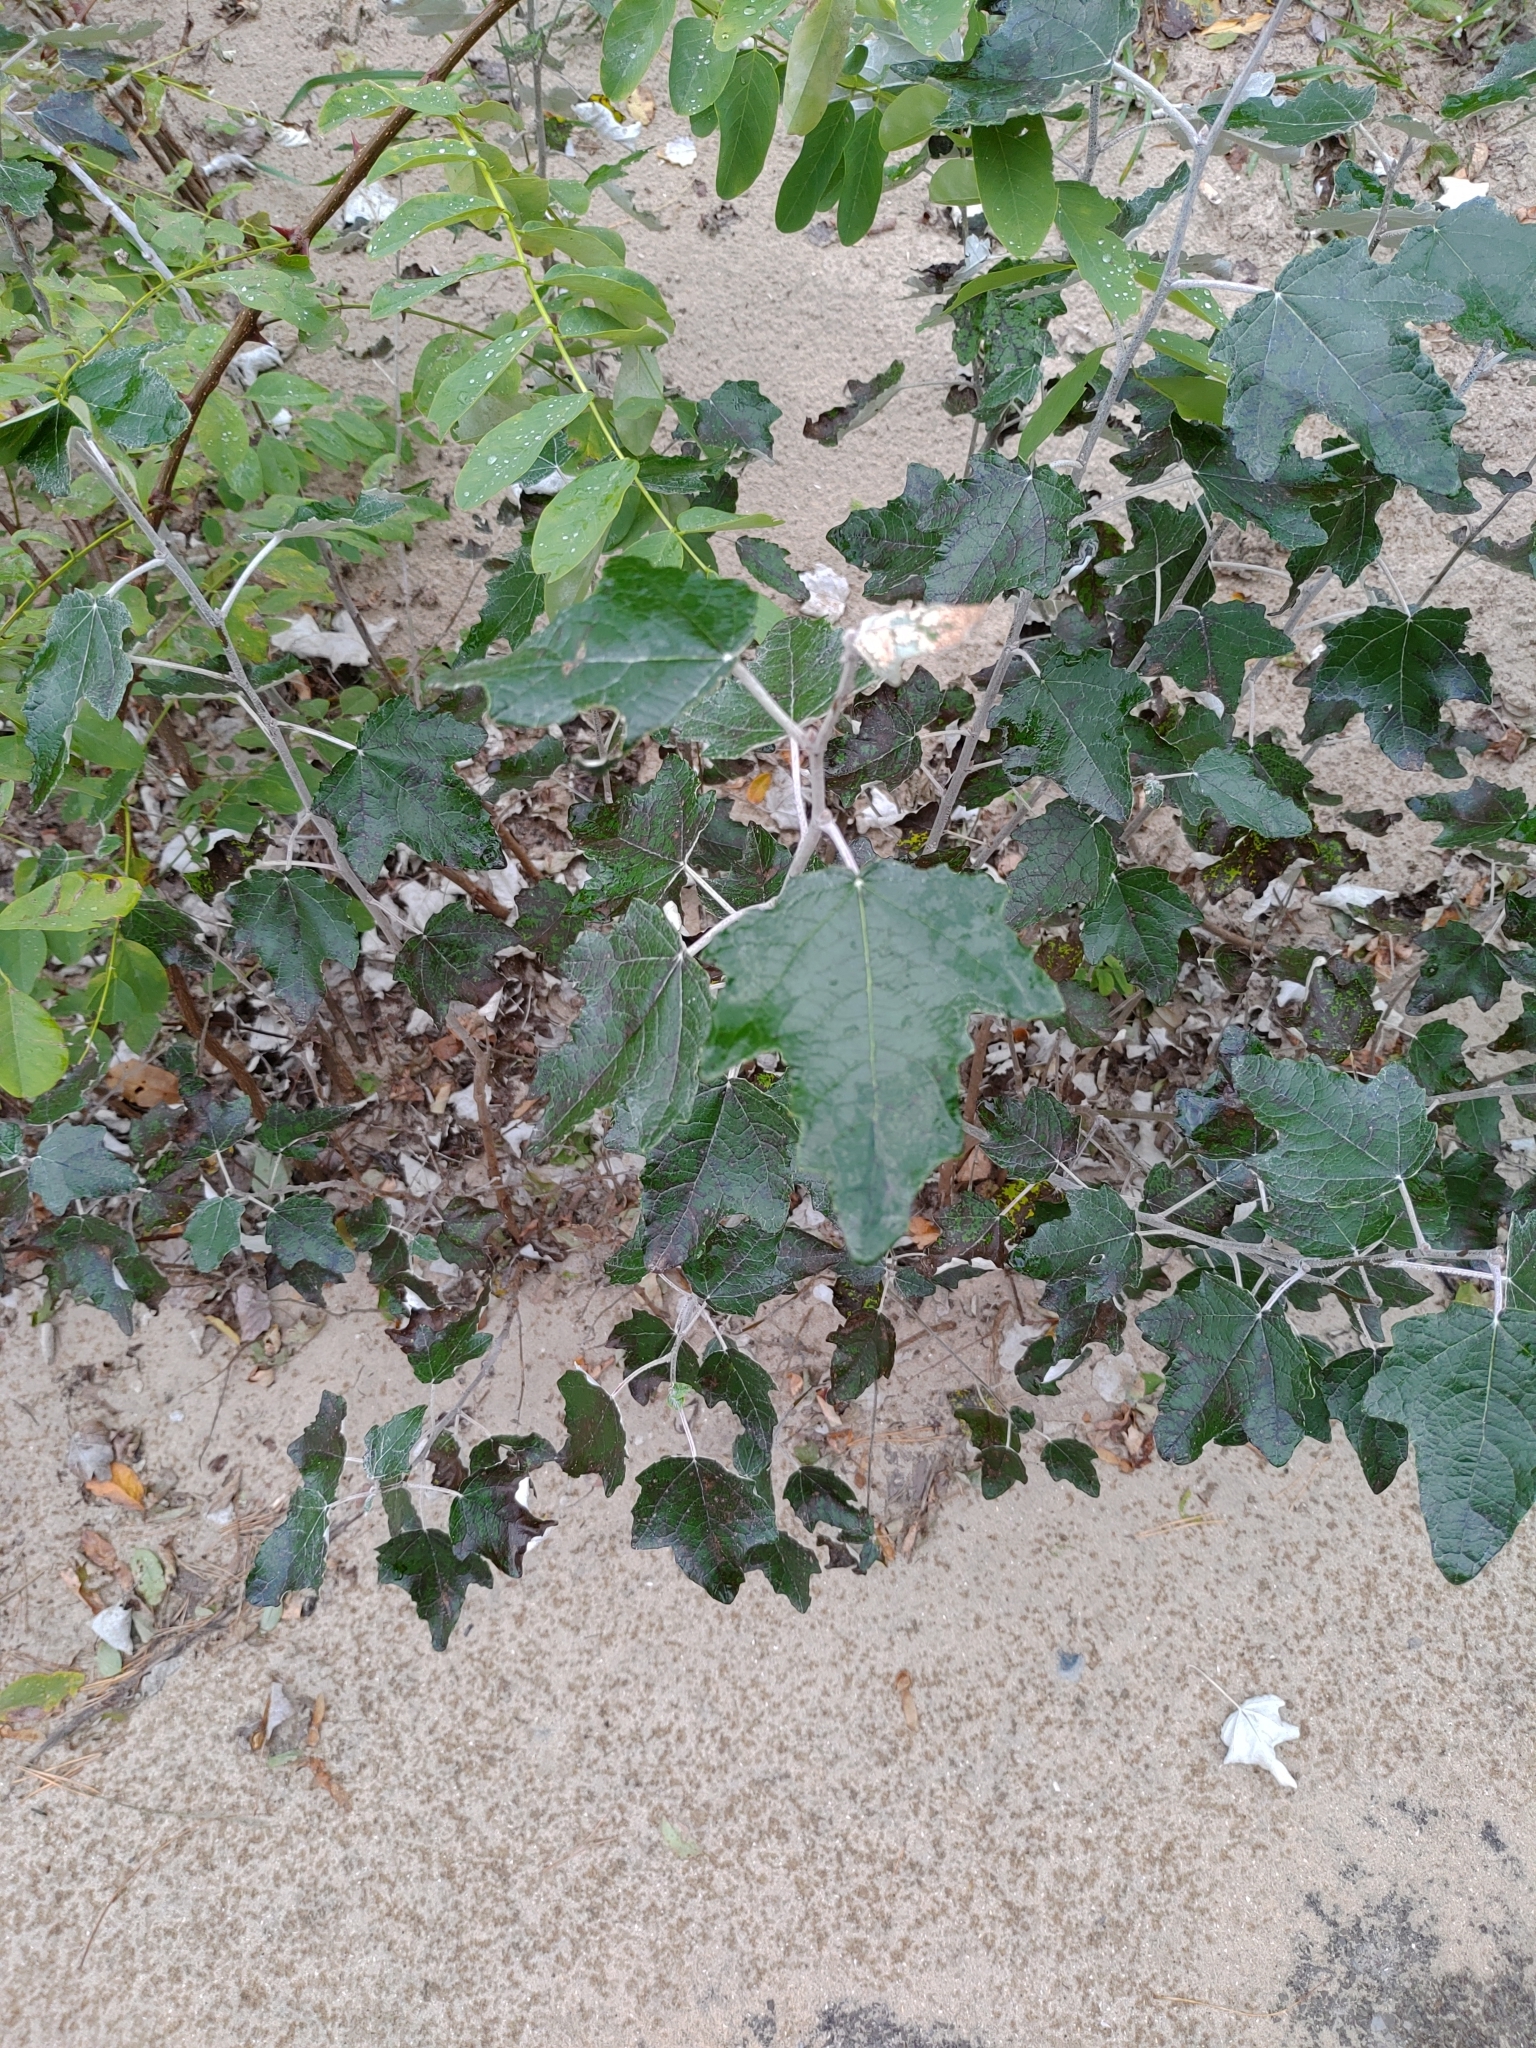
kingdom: Plantae
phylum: Tracheophyta
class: Magnoliopsida
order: Malpighiales
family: Salicaceae
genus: Populus
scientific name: Populus alba
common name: White poplar
